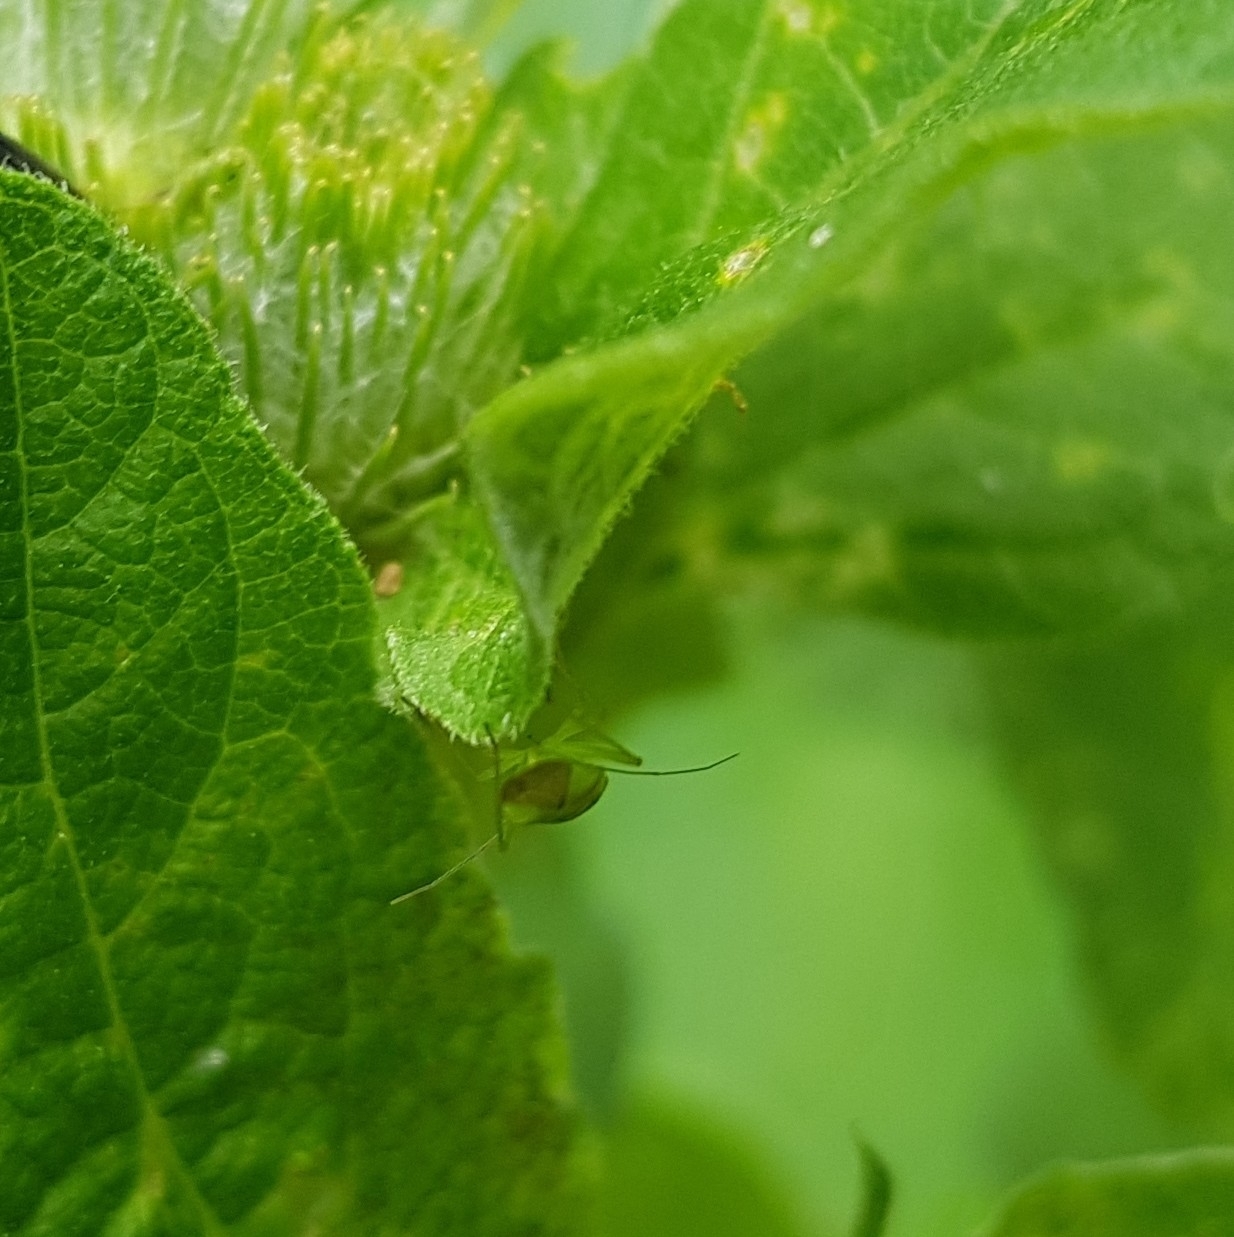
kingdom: Animalia
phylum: Arthropoda
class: Insecta
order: Hemiptera
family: Miridae
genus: Lygocoris
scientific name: Lygocoris pabulinus
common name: Common green capsid
